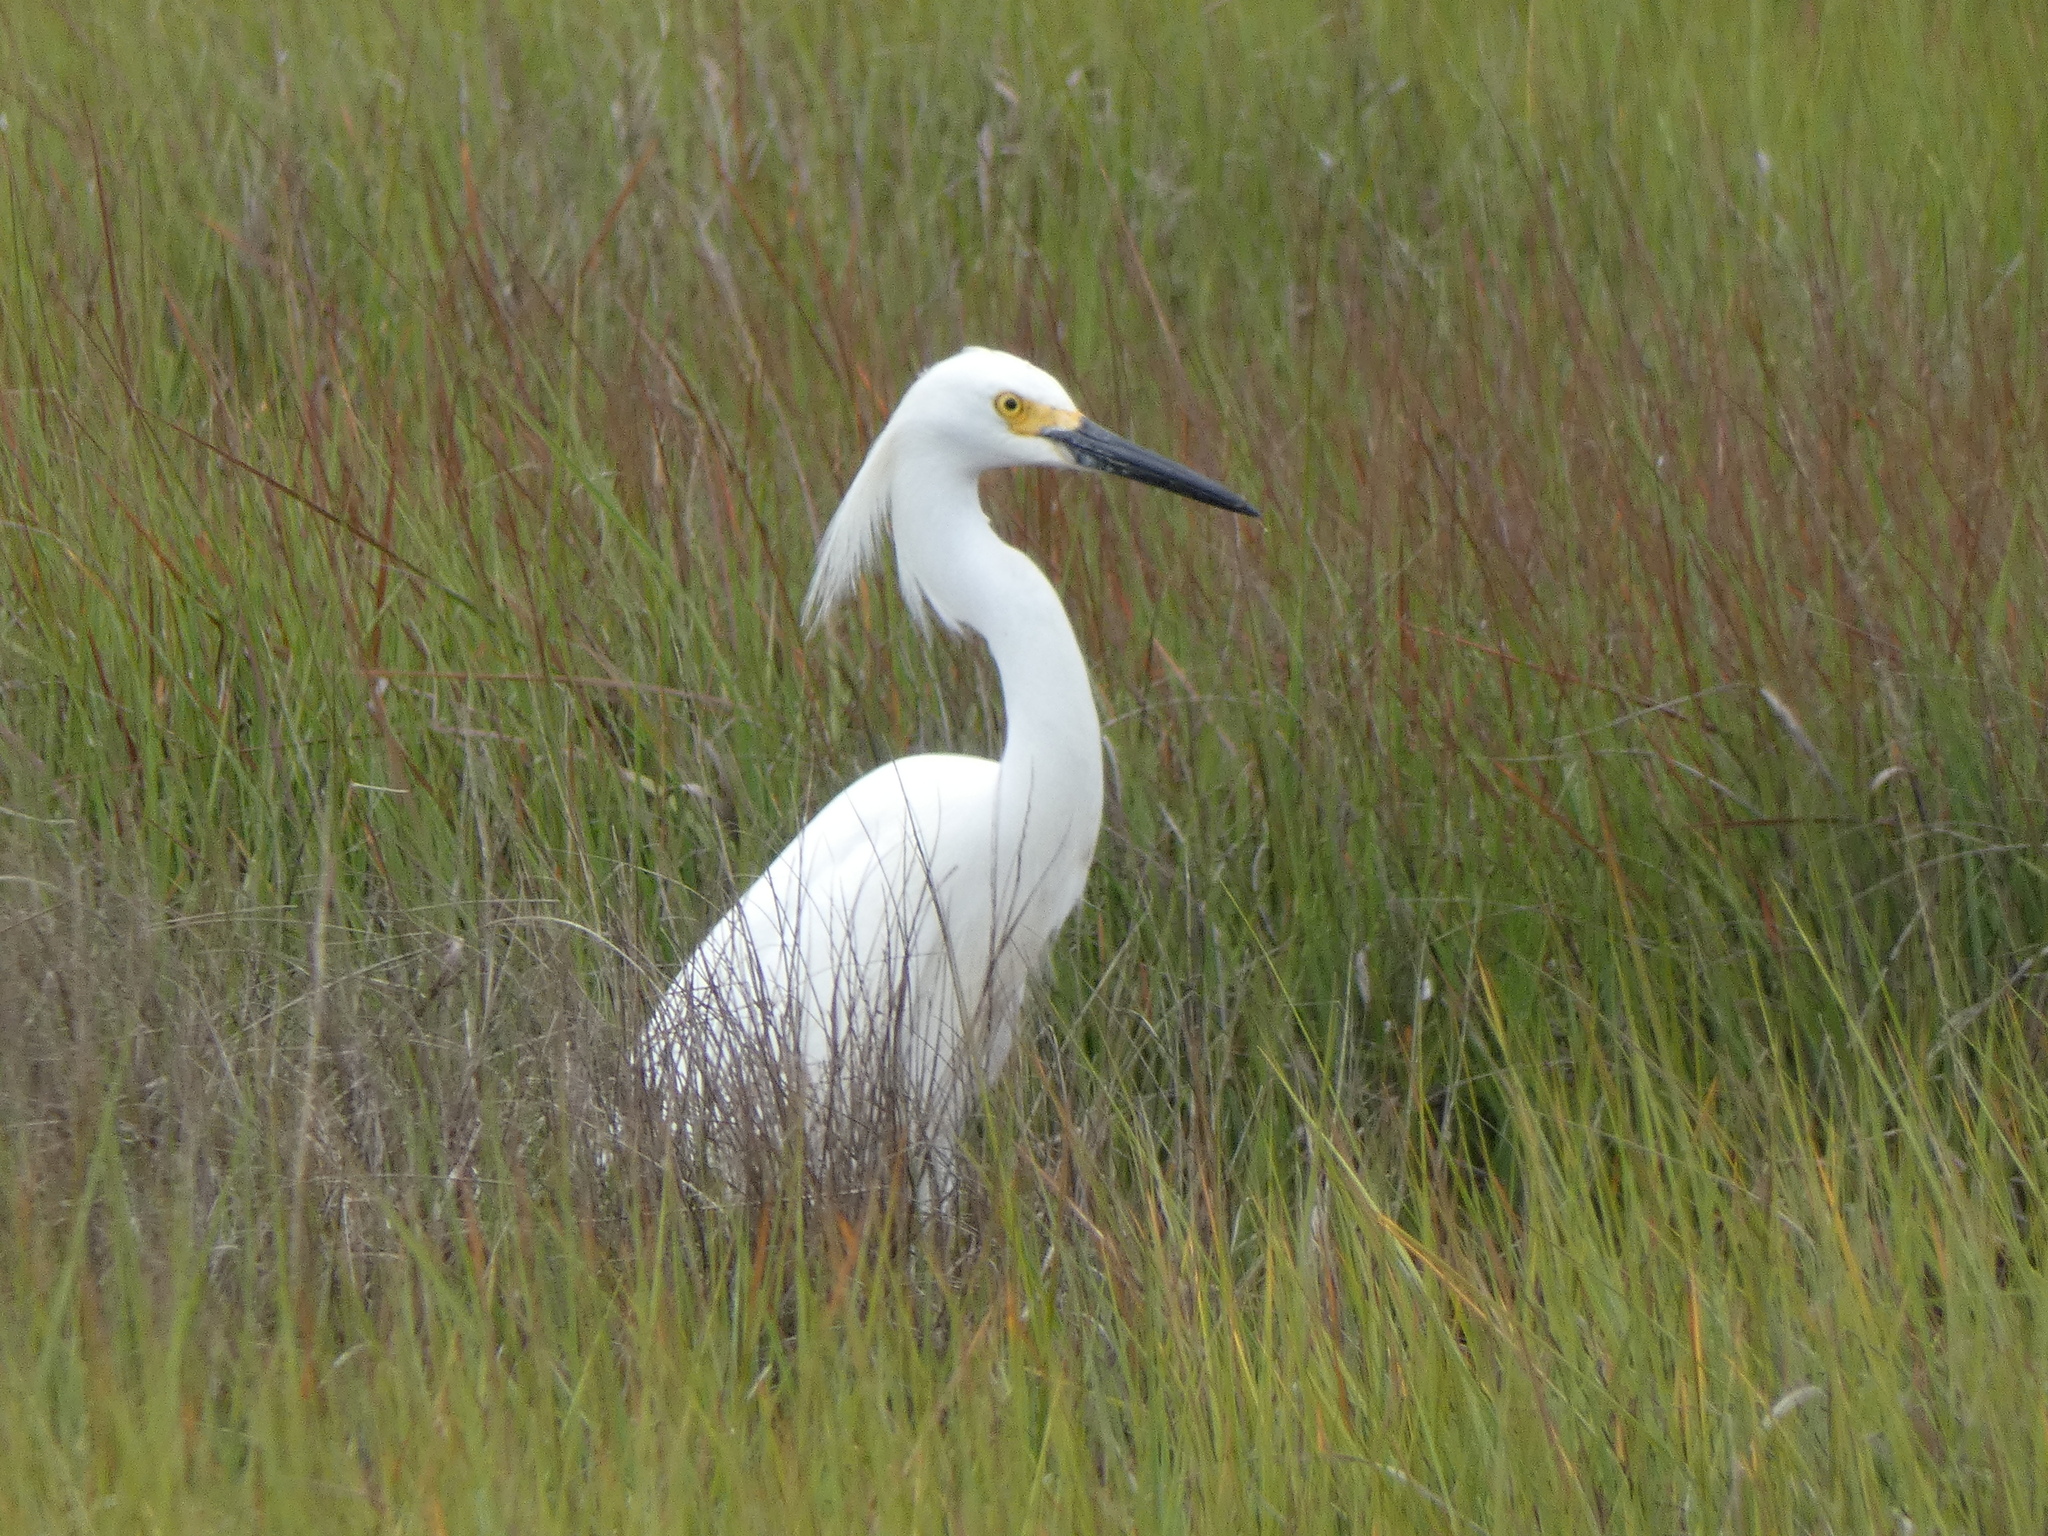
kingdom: Animalia
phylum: Chordata
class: Aves
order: Pelecaniformes
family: Ardeidae
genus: Egretta
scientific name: Egretta thula
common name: Snowy egret
